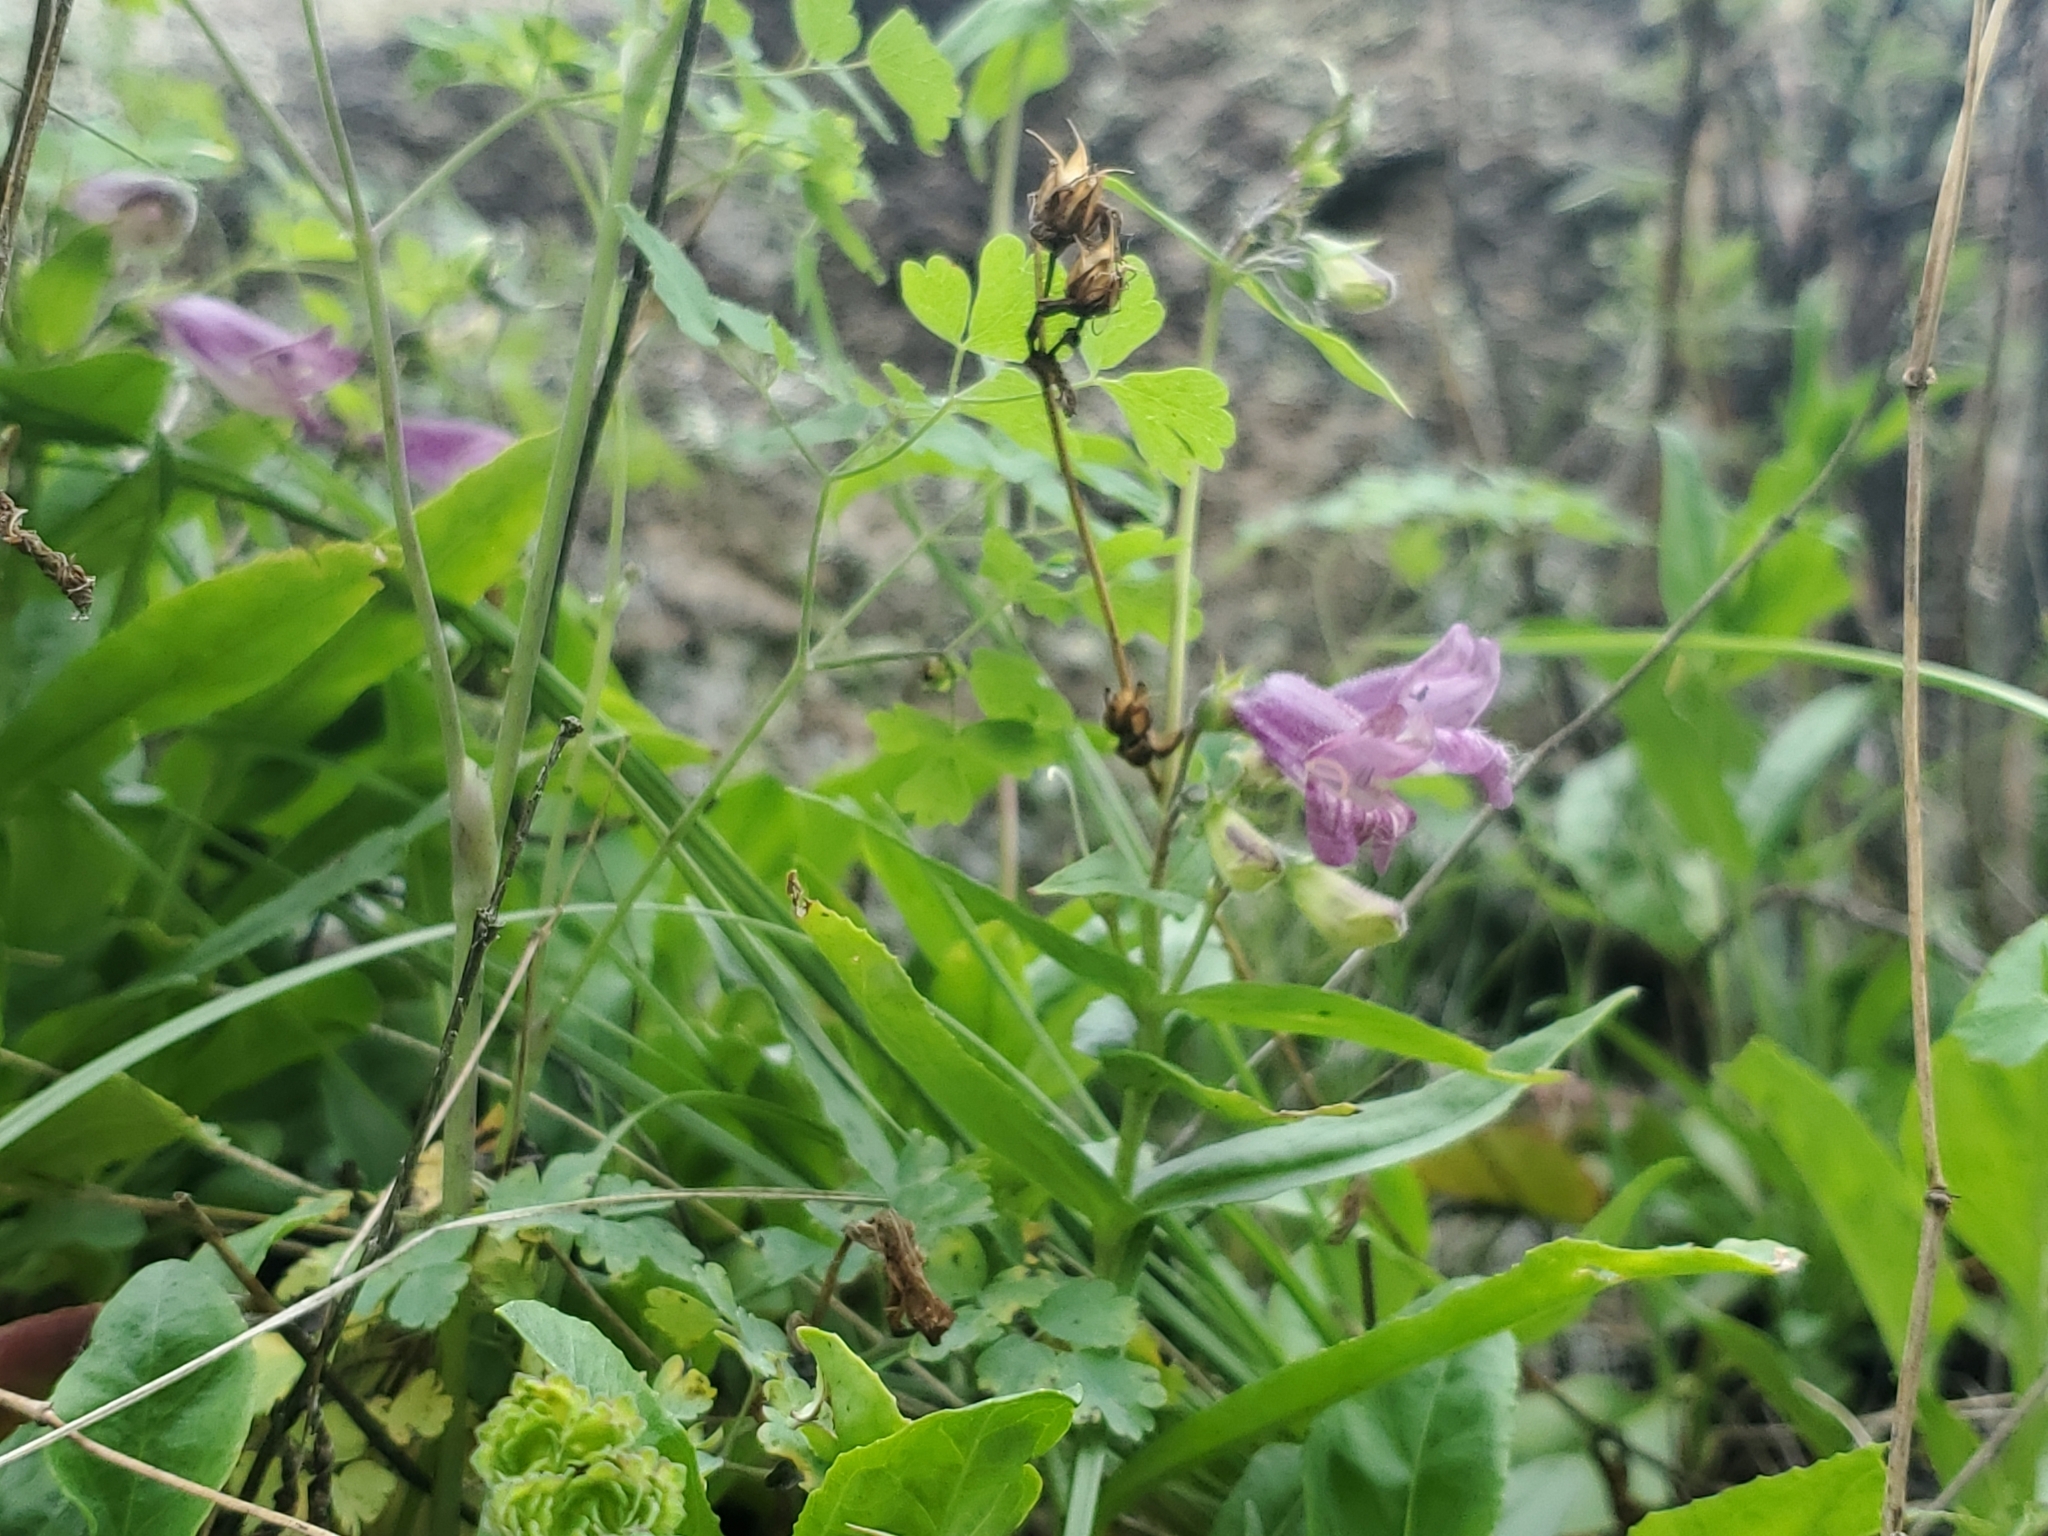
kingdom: Plantae
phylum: Tracheophyta
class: Magnoliopsida
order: Lamiales
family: Plantaginaceae
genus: Penstemon
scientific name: Penstemon whippleanus
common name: Whipple's penstemon
